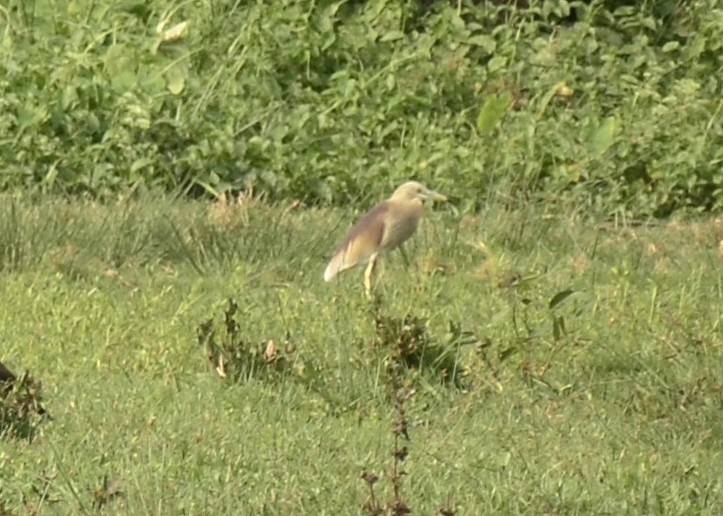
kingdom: Animalia
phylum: Chordata
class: Aves
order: Pelecaniformes
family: Ardeidae
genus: Ardeola
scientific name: Ardeola grayii
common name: Indian pond heron
